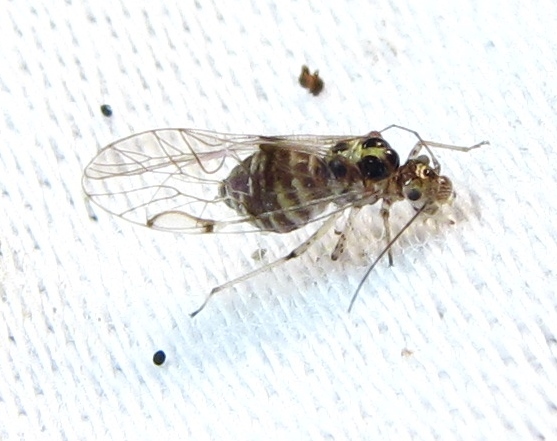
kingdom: Animalia
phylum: Arthropoda
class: Insecta
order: Psocodea
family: Dasydemellidae
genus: Teliapsocus
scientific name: Teliapsocus conterminus
